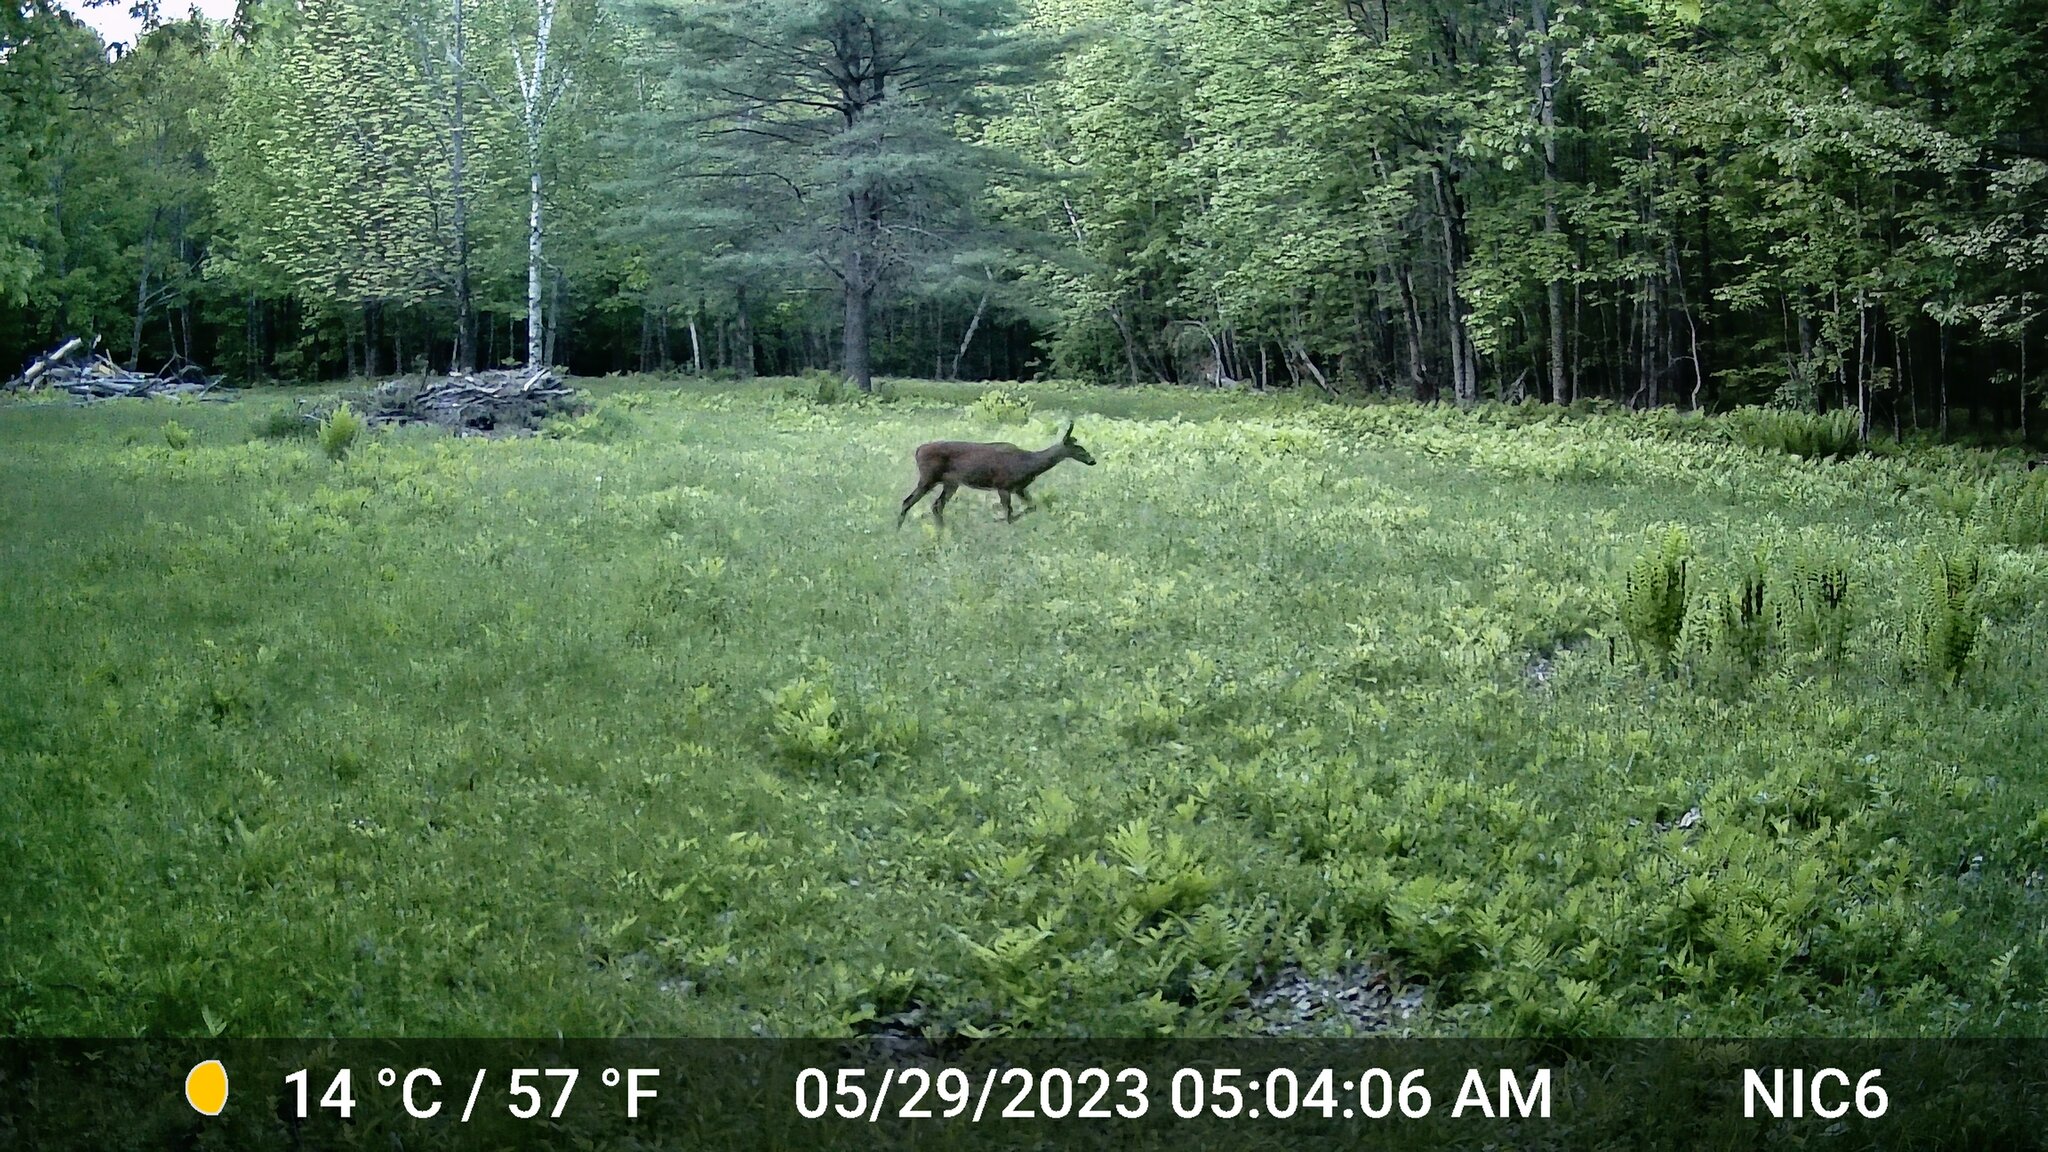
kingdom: Animalia
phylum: Chordata
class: Mammalia
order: Artiodactyla
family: Cervidae
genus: Odocoileus
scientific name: Odocoileus virginianus
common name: White-tailed deer
